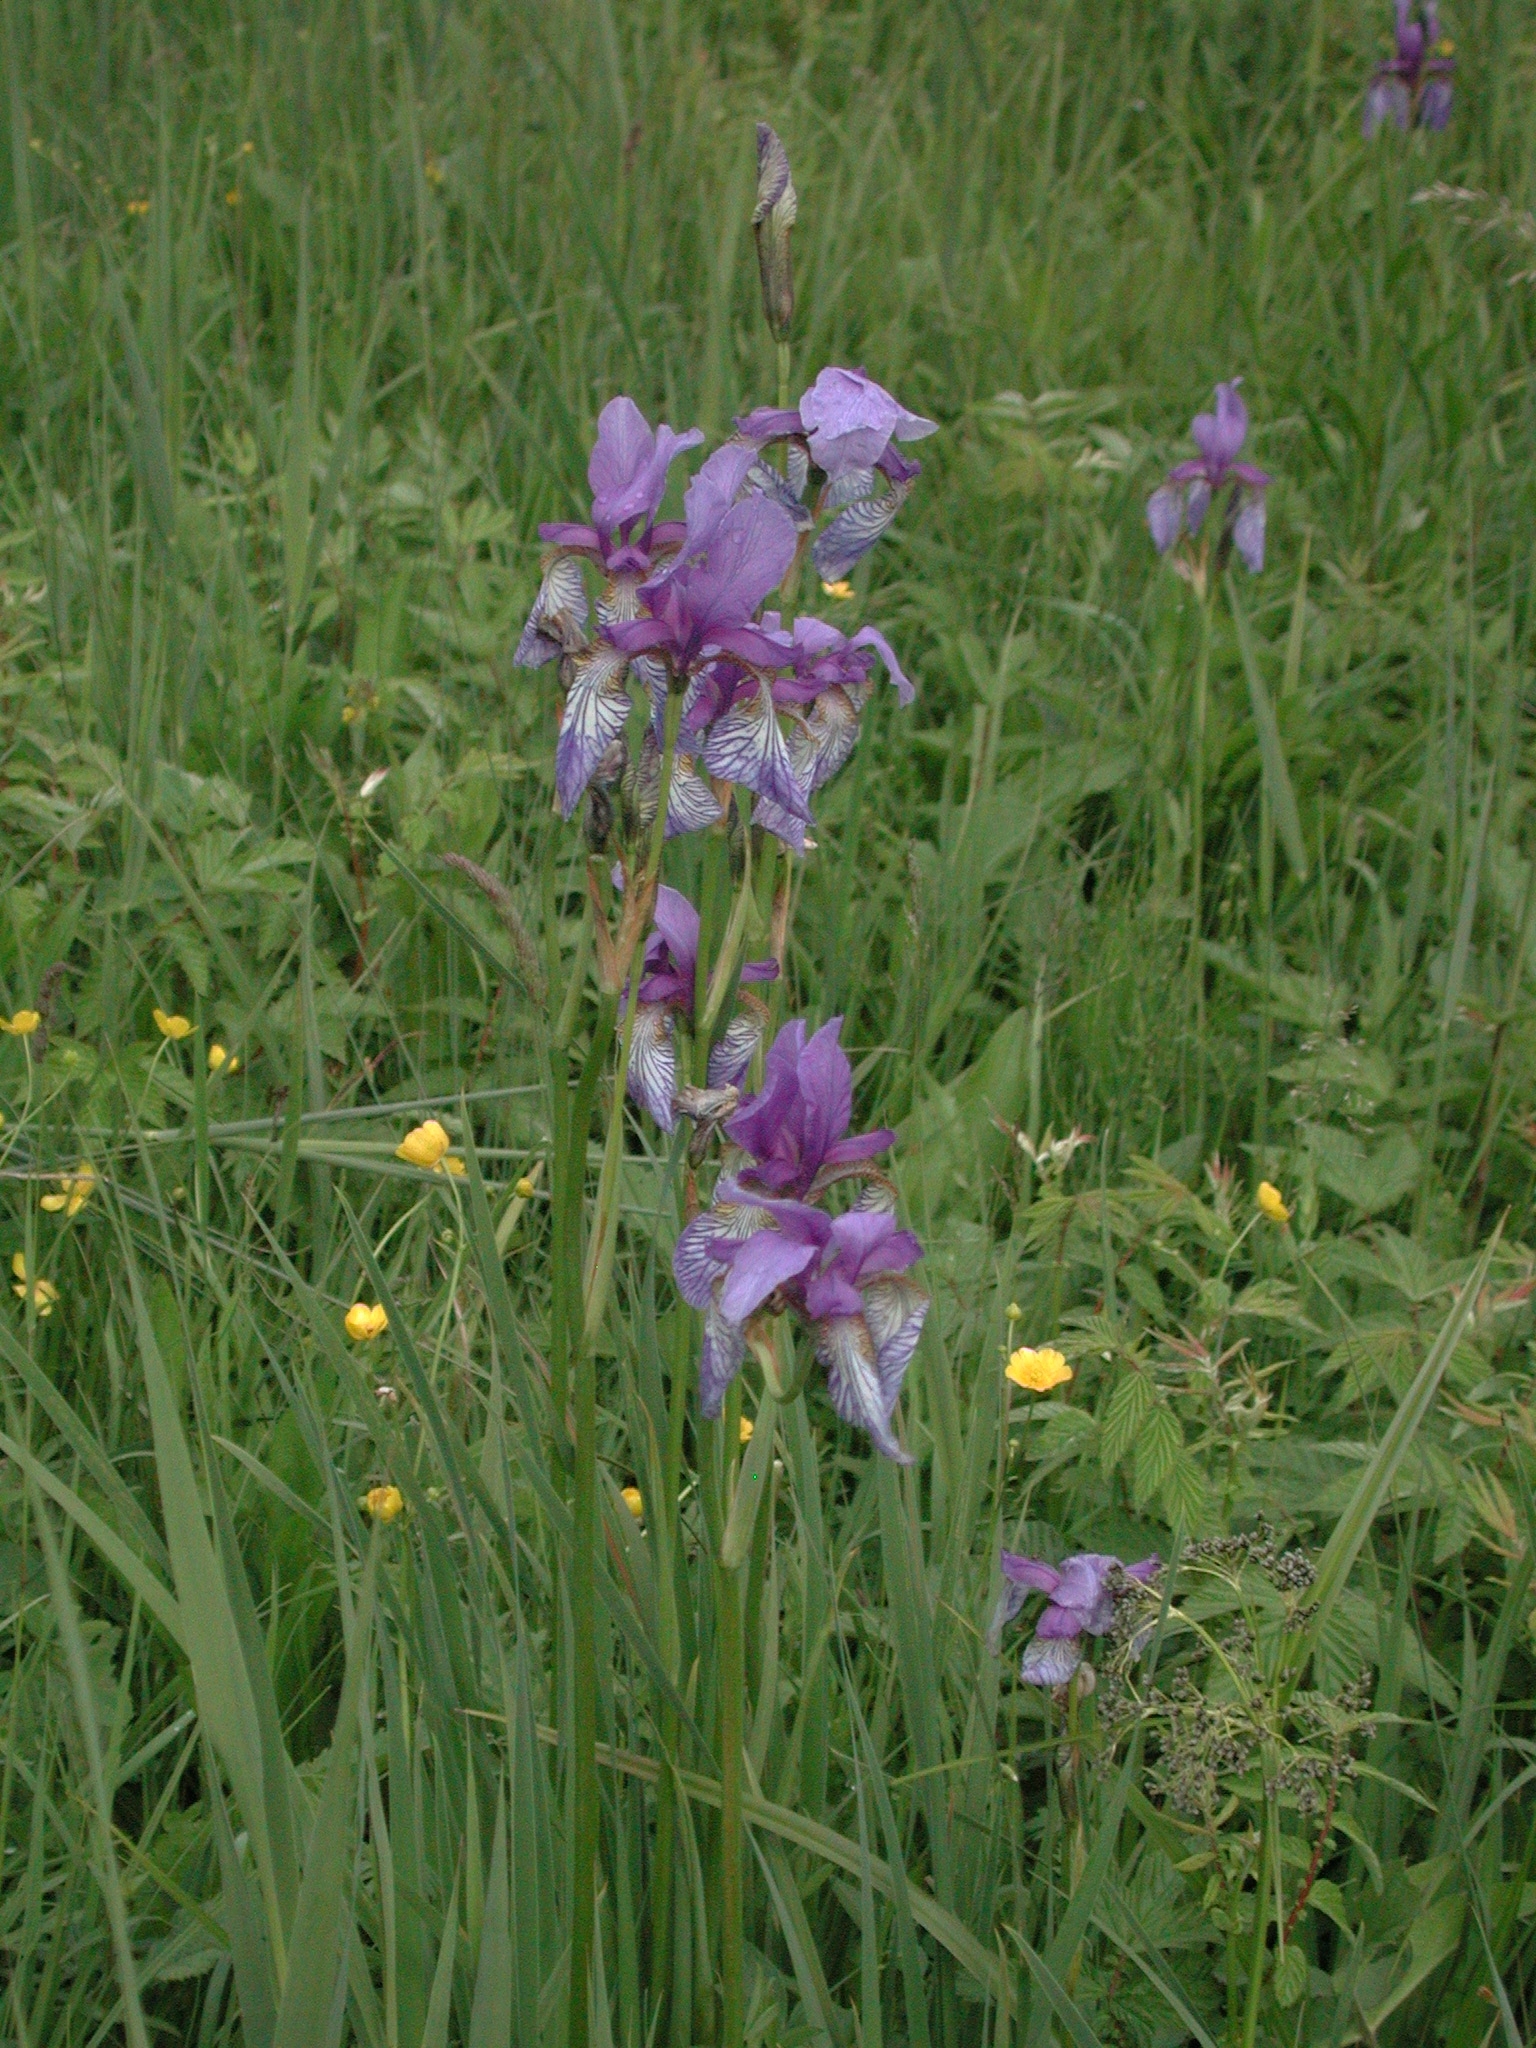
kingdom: Plantae
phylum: Tracheophyta
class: Liliopsida
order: Asparagales
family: Iridaceae
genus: Iris
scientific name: Iris sibirica
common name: Siberian iris
